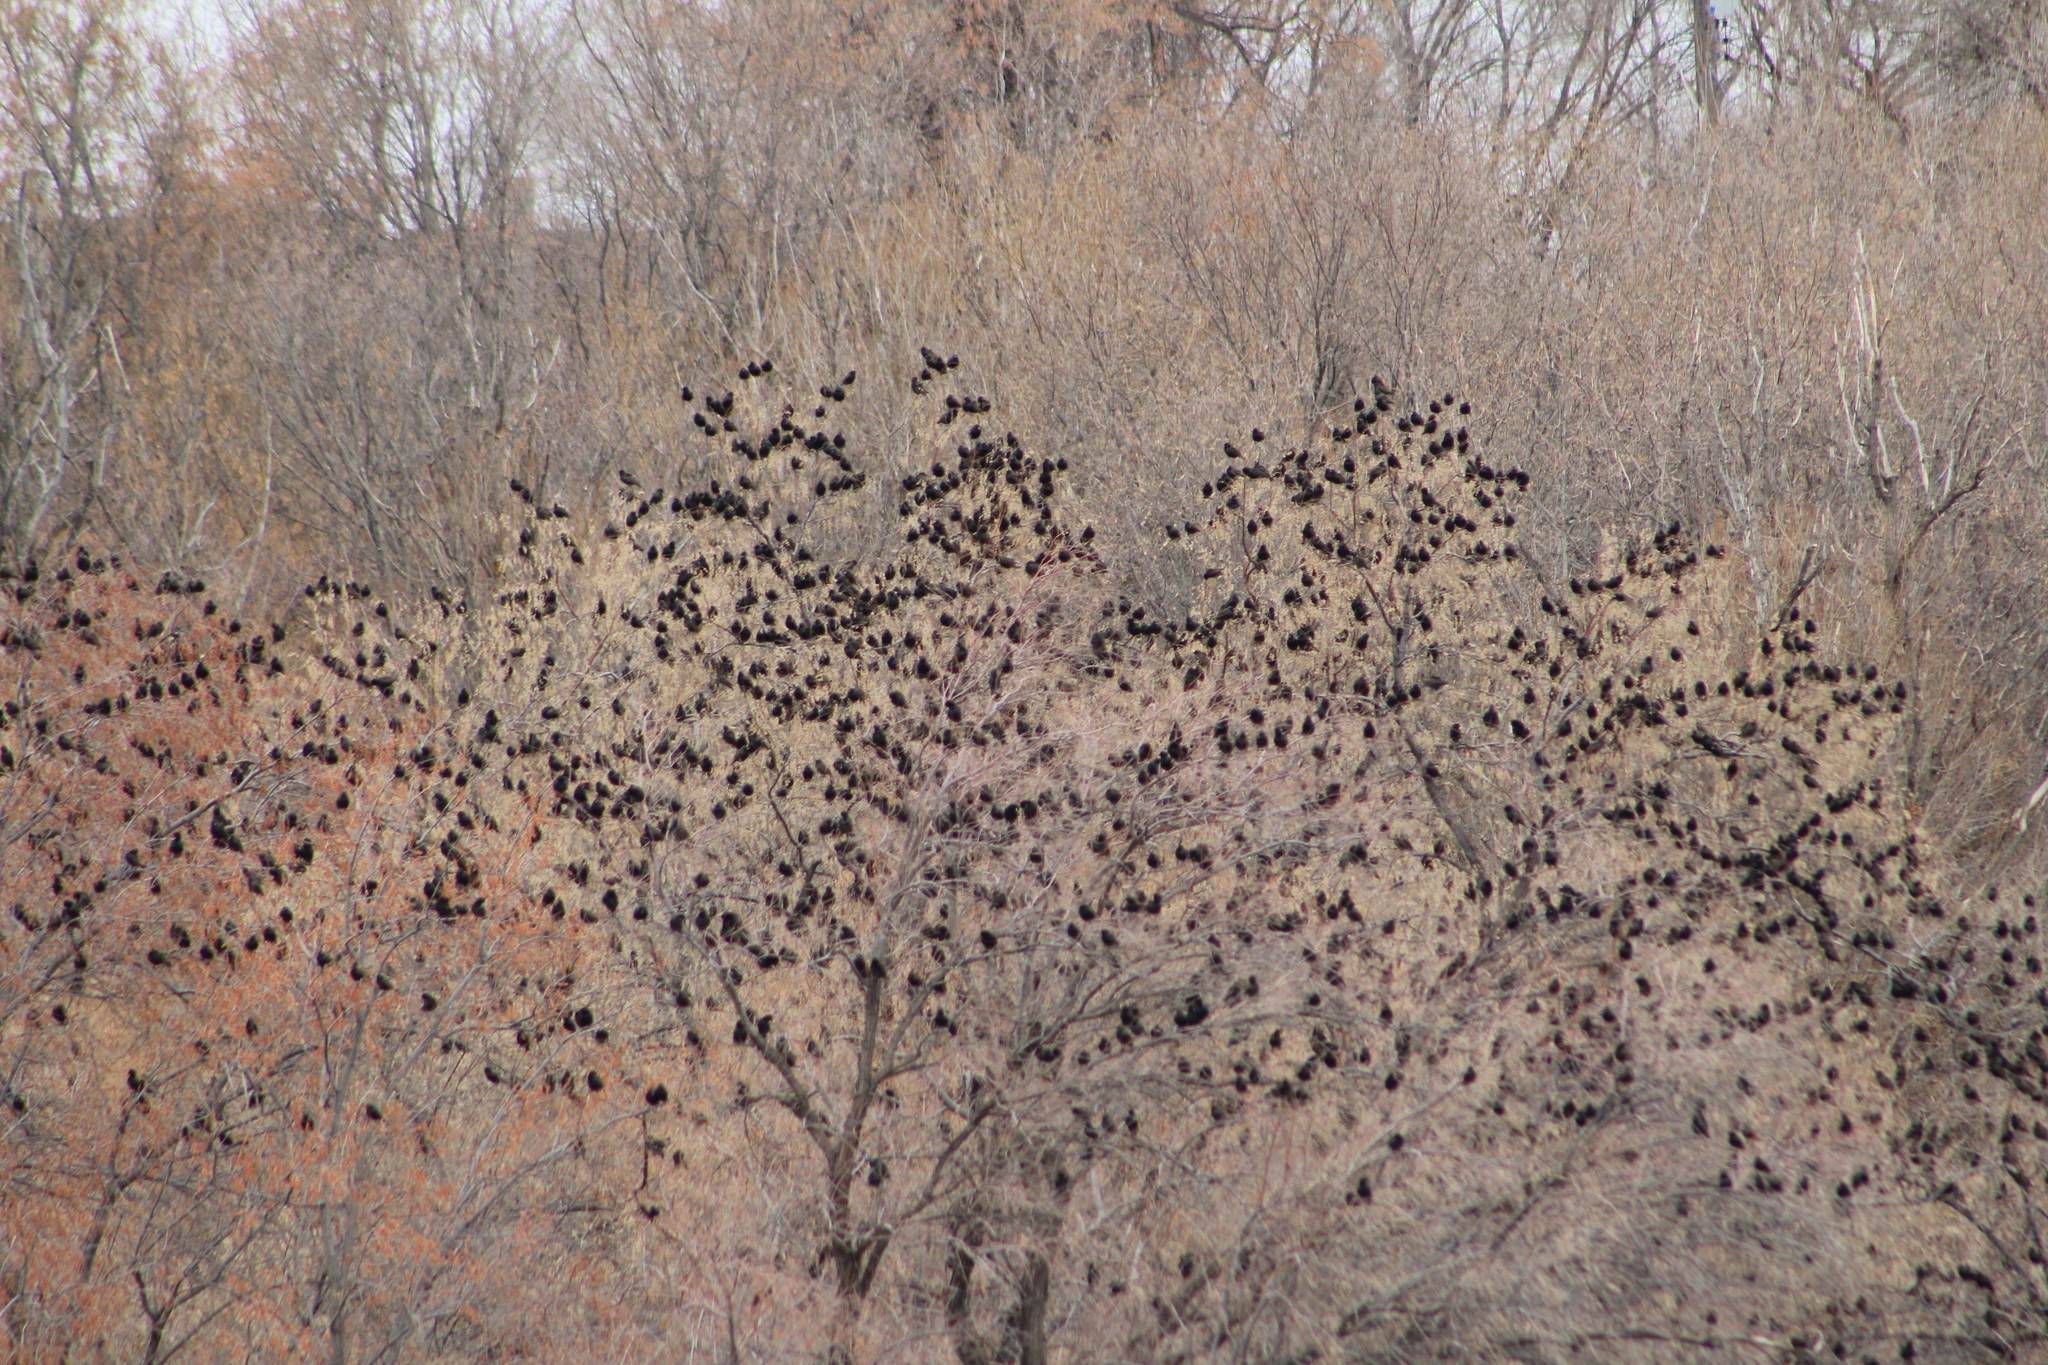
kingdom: Animalia
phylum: Chordata
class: Aves
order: Passeriformes
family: Sturnidae
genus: Sturnus
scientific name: Sturnus vulgaris
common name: Common starling
